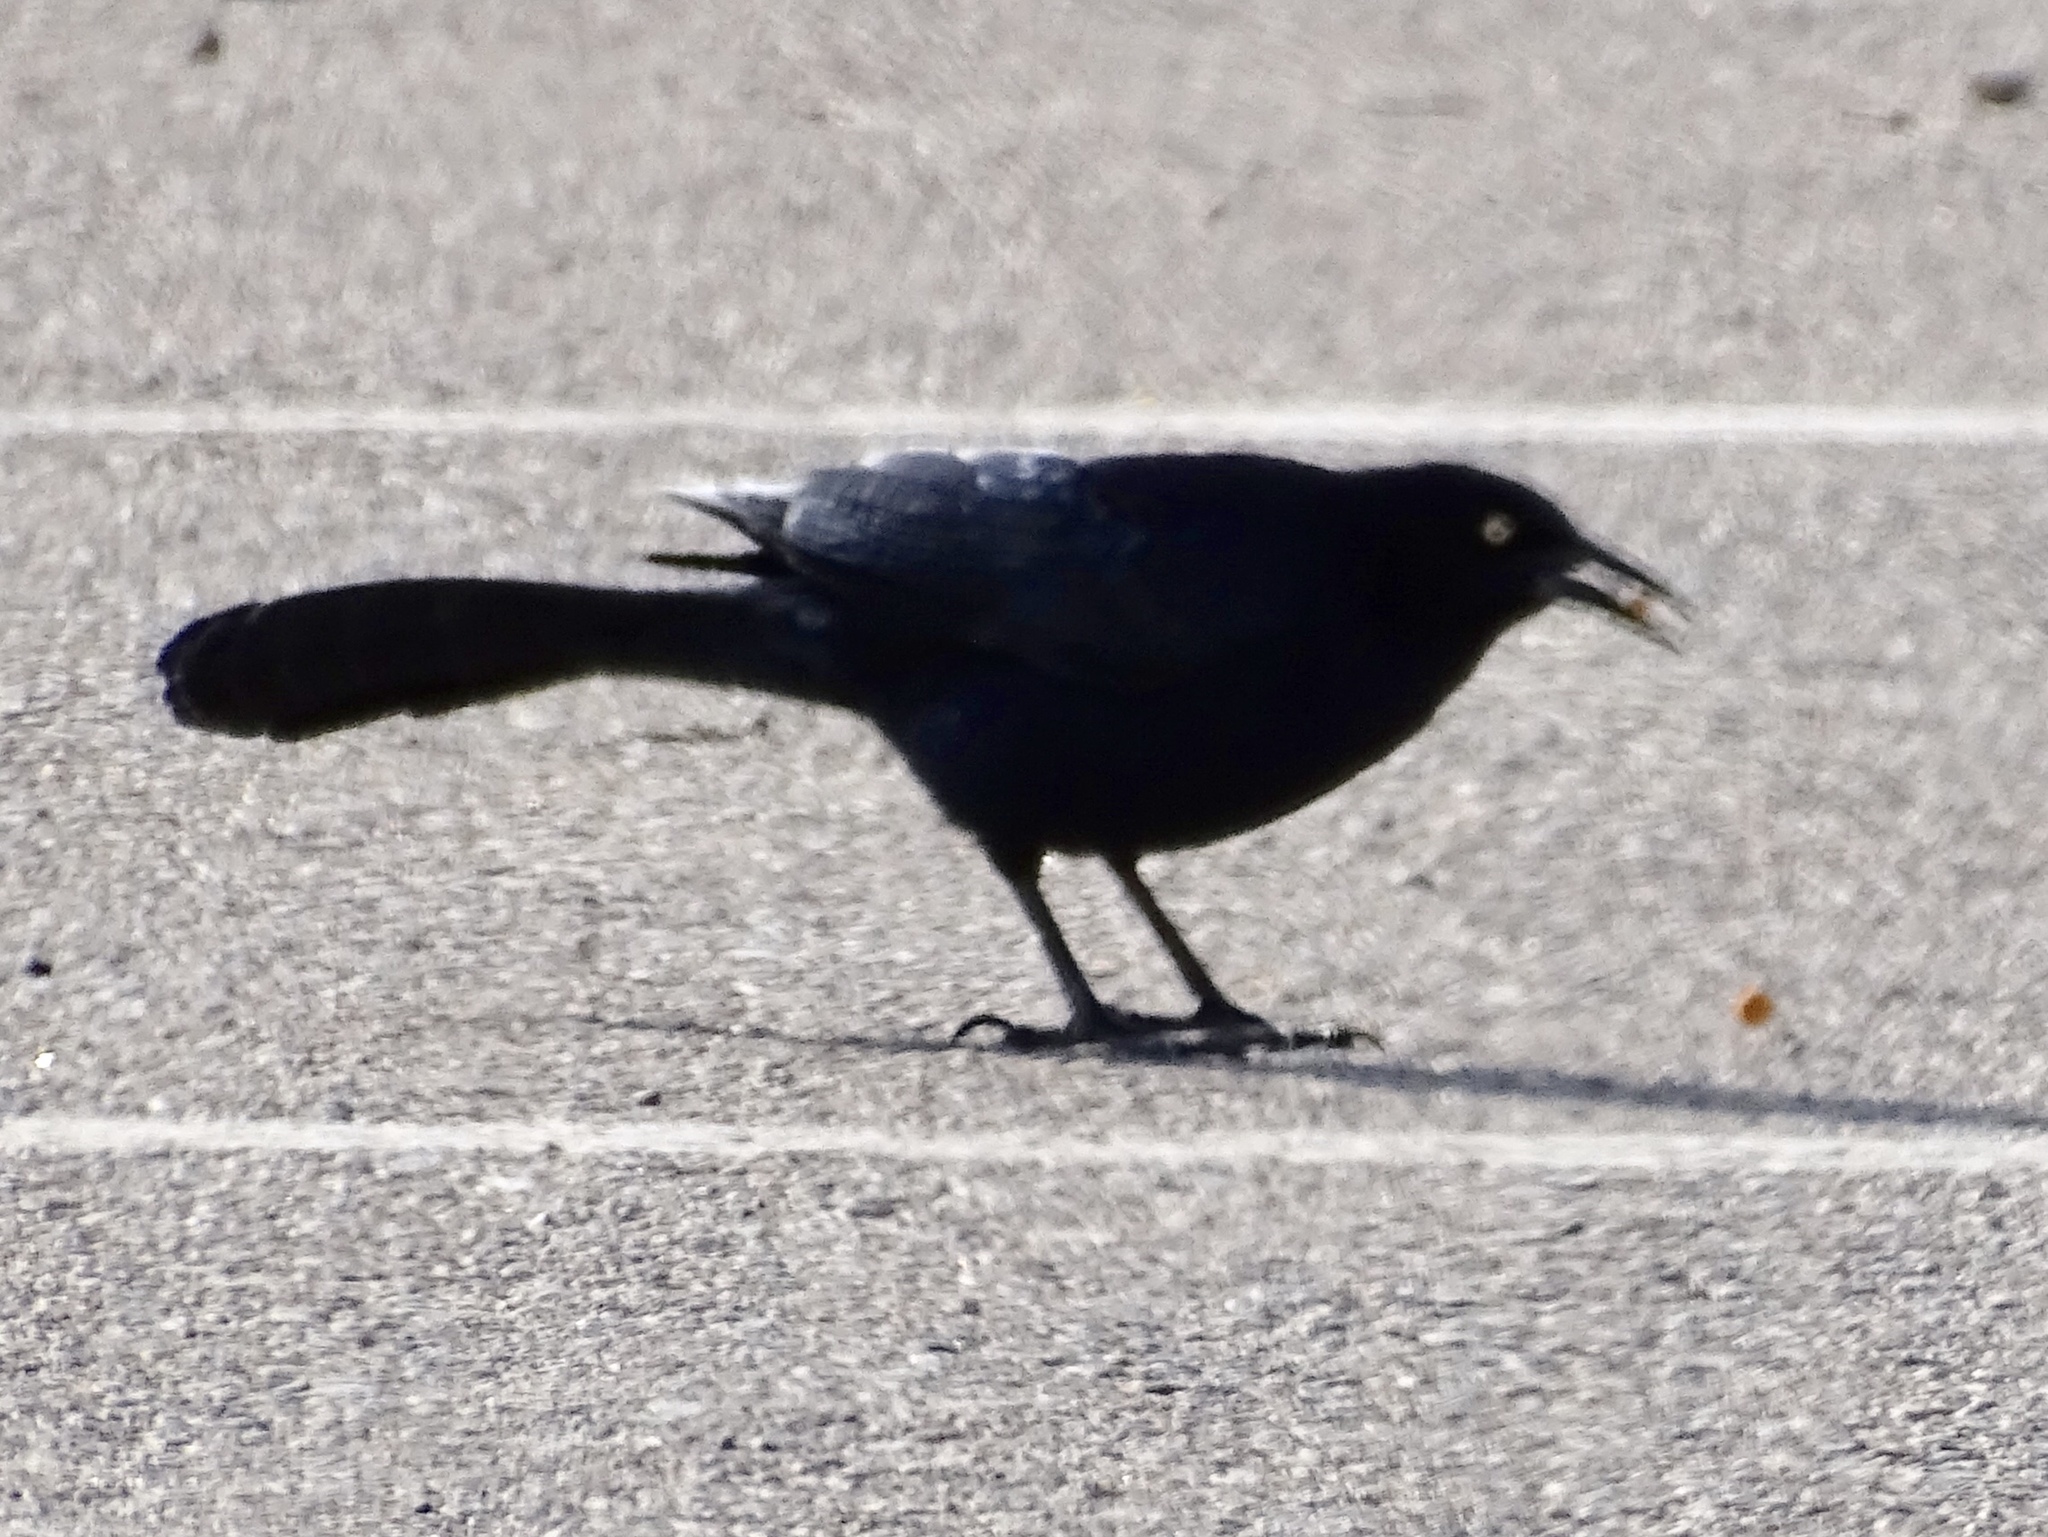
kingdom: Animalia
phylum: Chordata
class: Aves
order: Passeriformes
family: Icteridae
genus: Quiscalus
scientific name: Quiscalus mexicanus
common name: Great-tailed grackle
